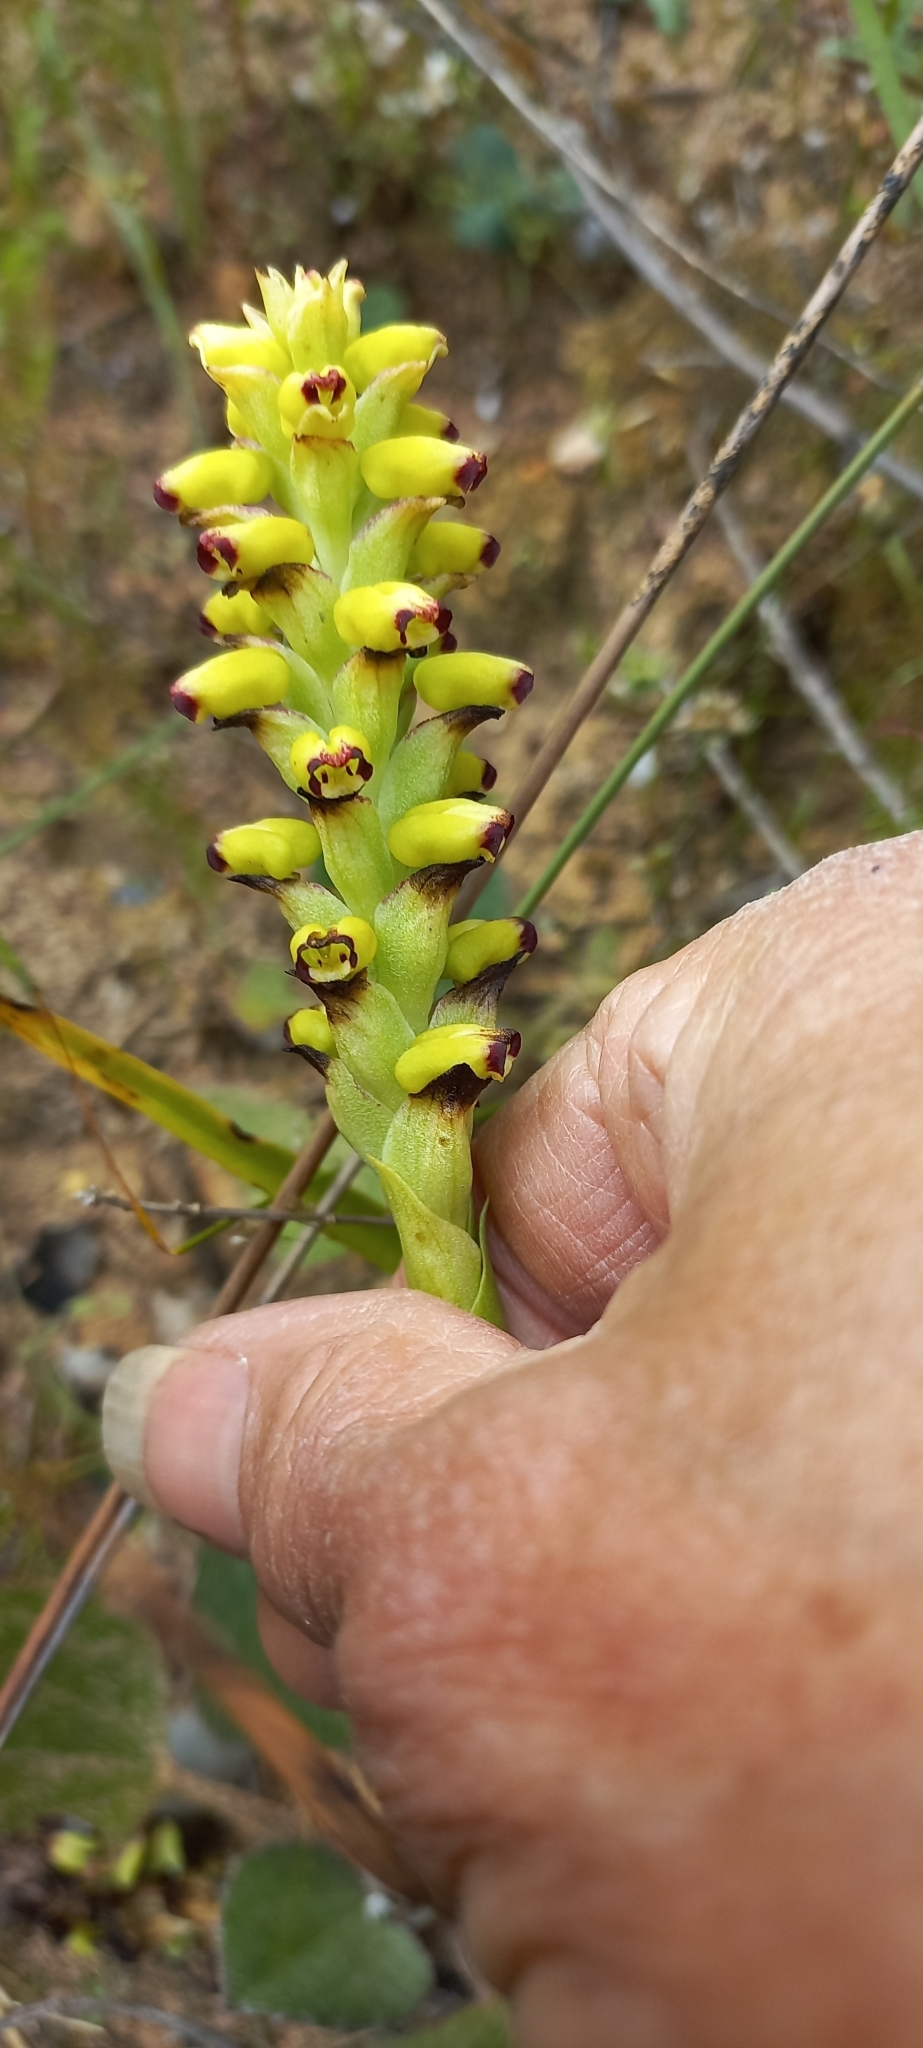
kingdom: Plantae
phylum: Tracheophyta
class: Liliopsida
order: Asparagales
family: Orchidaceae
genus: Corycium
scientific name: Corycium orobanchoides
